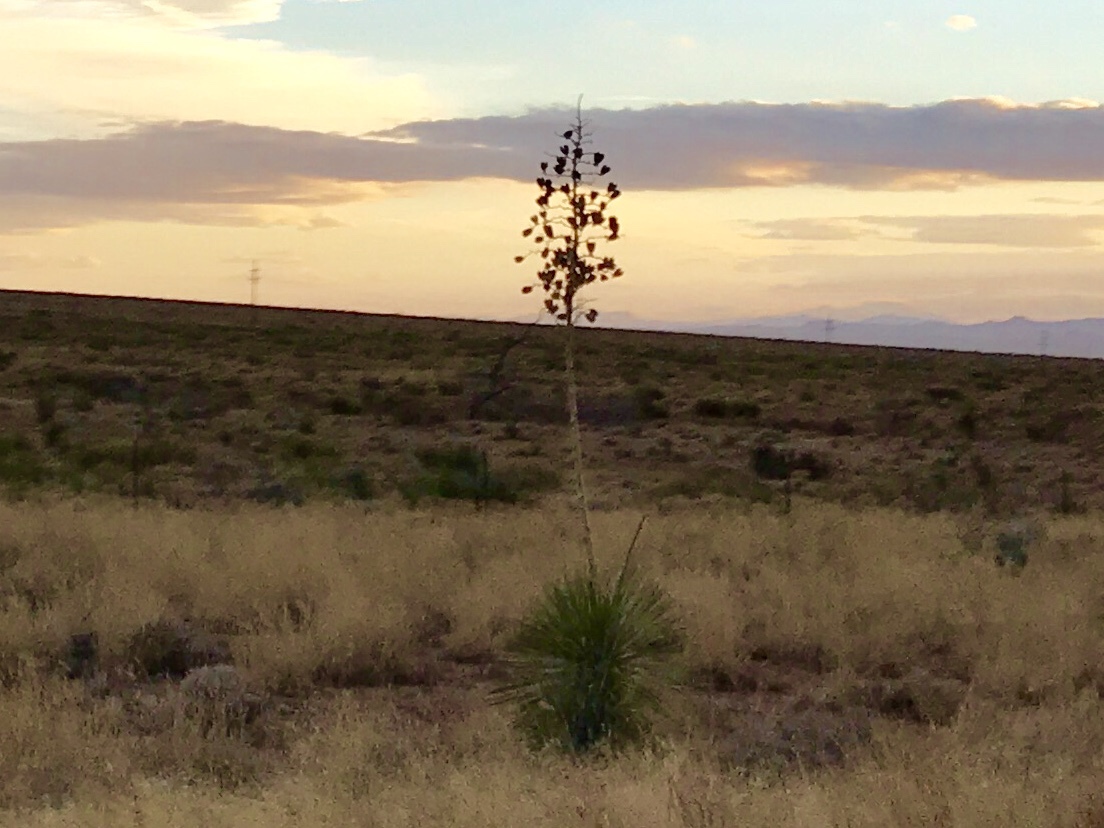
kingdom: Plantae
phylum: Tracheophyta
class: Liliopsida
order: Asparagales
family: Asparagaceae
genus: Yucca
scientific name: Yucca elata
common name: Palmella
